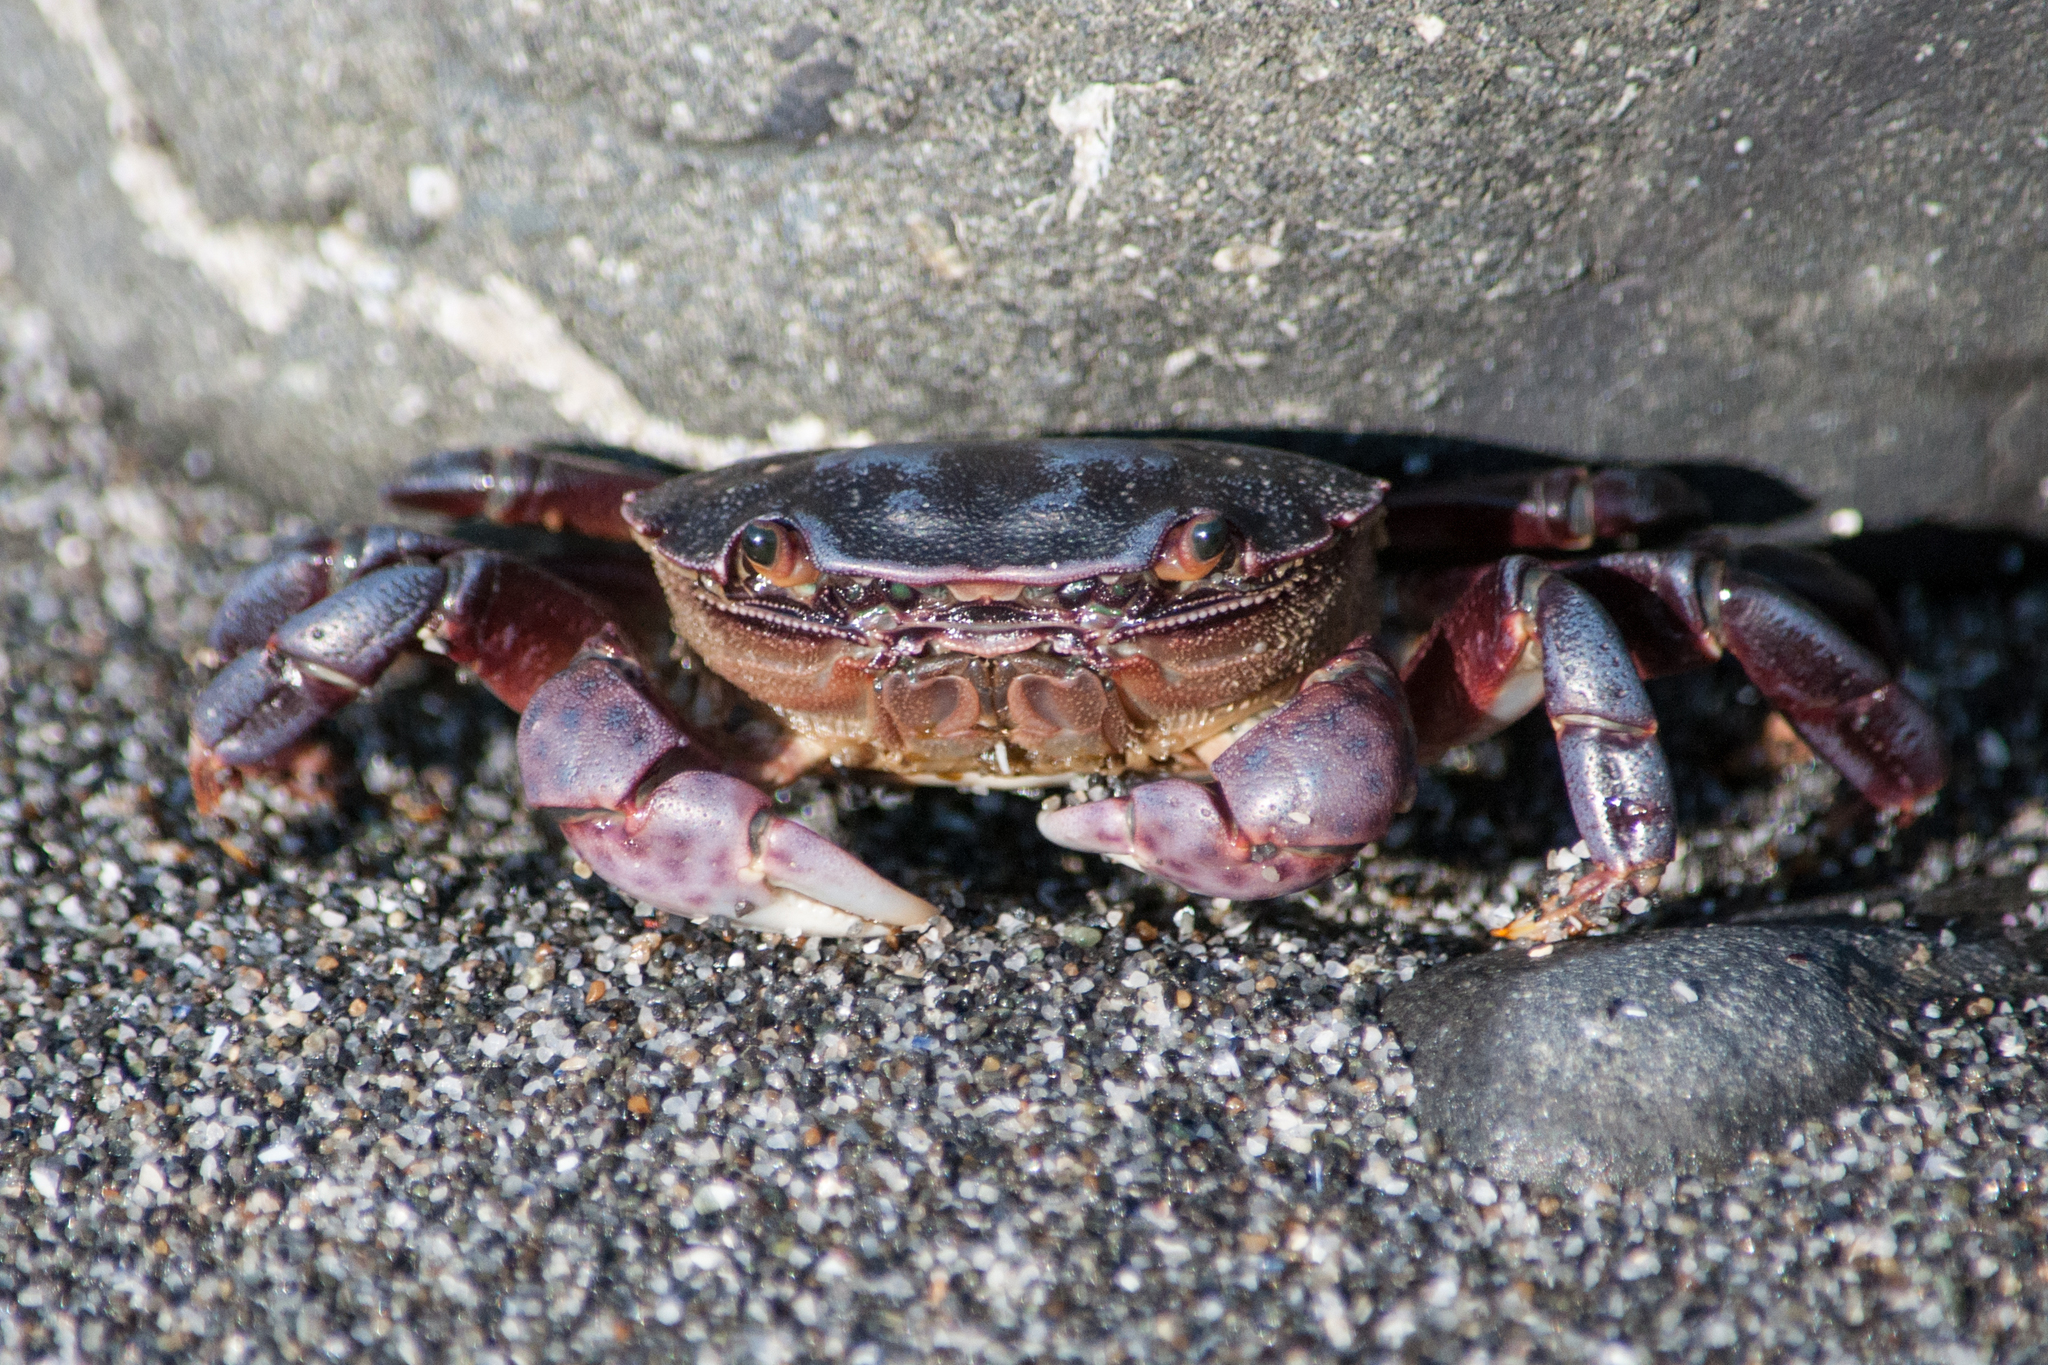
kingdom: Animalia
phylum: Arthropoda
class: Malacostraca
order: Decapoda
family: Varunidae
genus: Hemigrapsus
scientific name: Hemigrapsus nudus
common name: Purple shore crab
